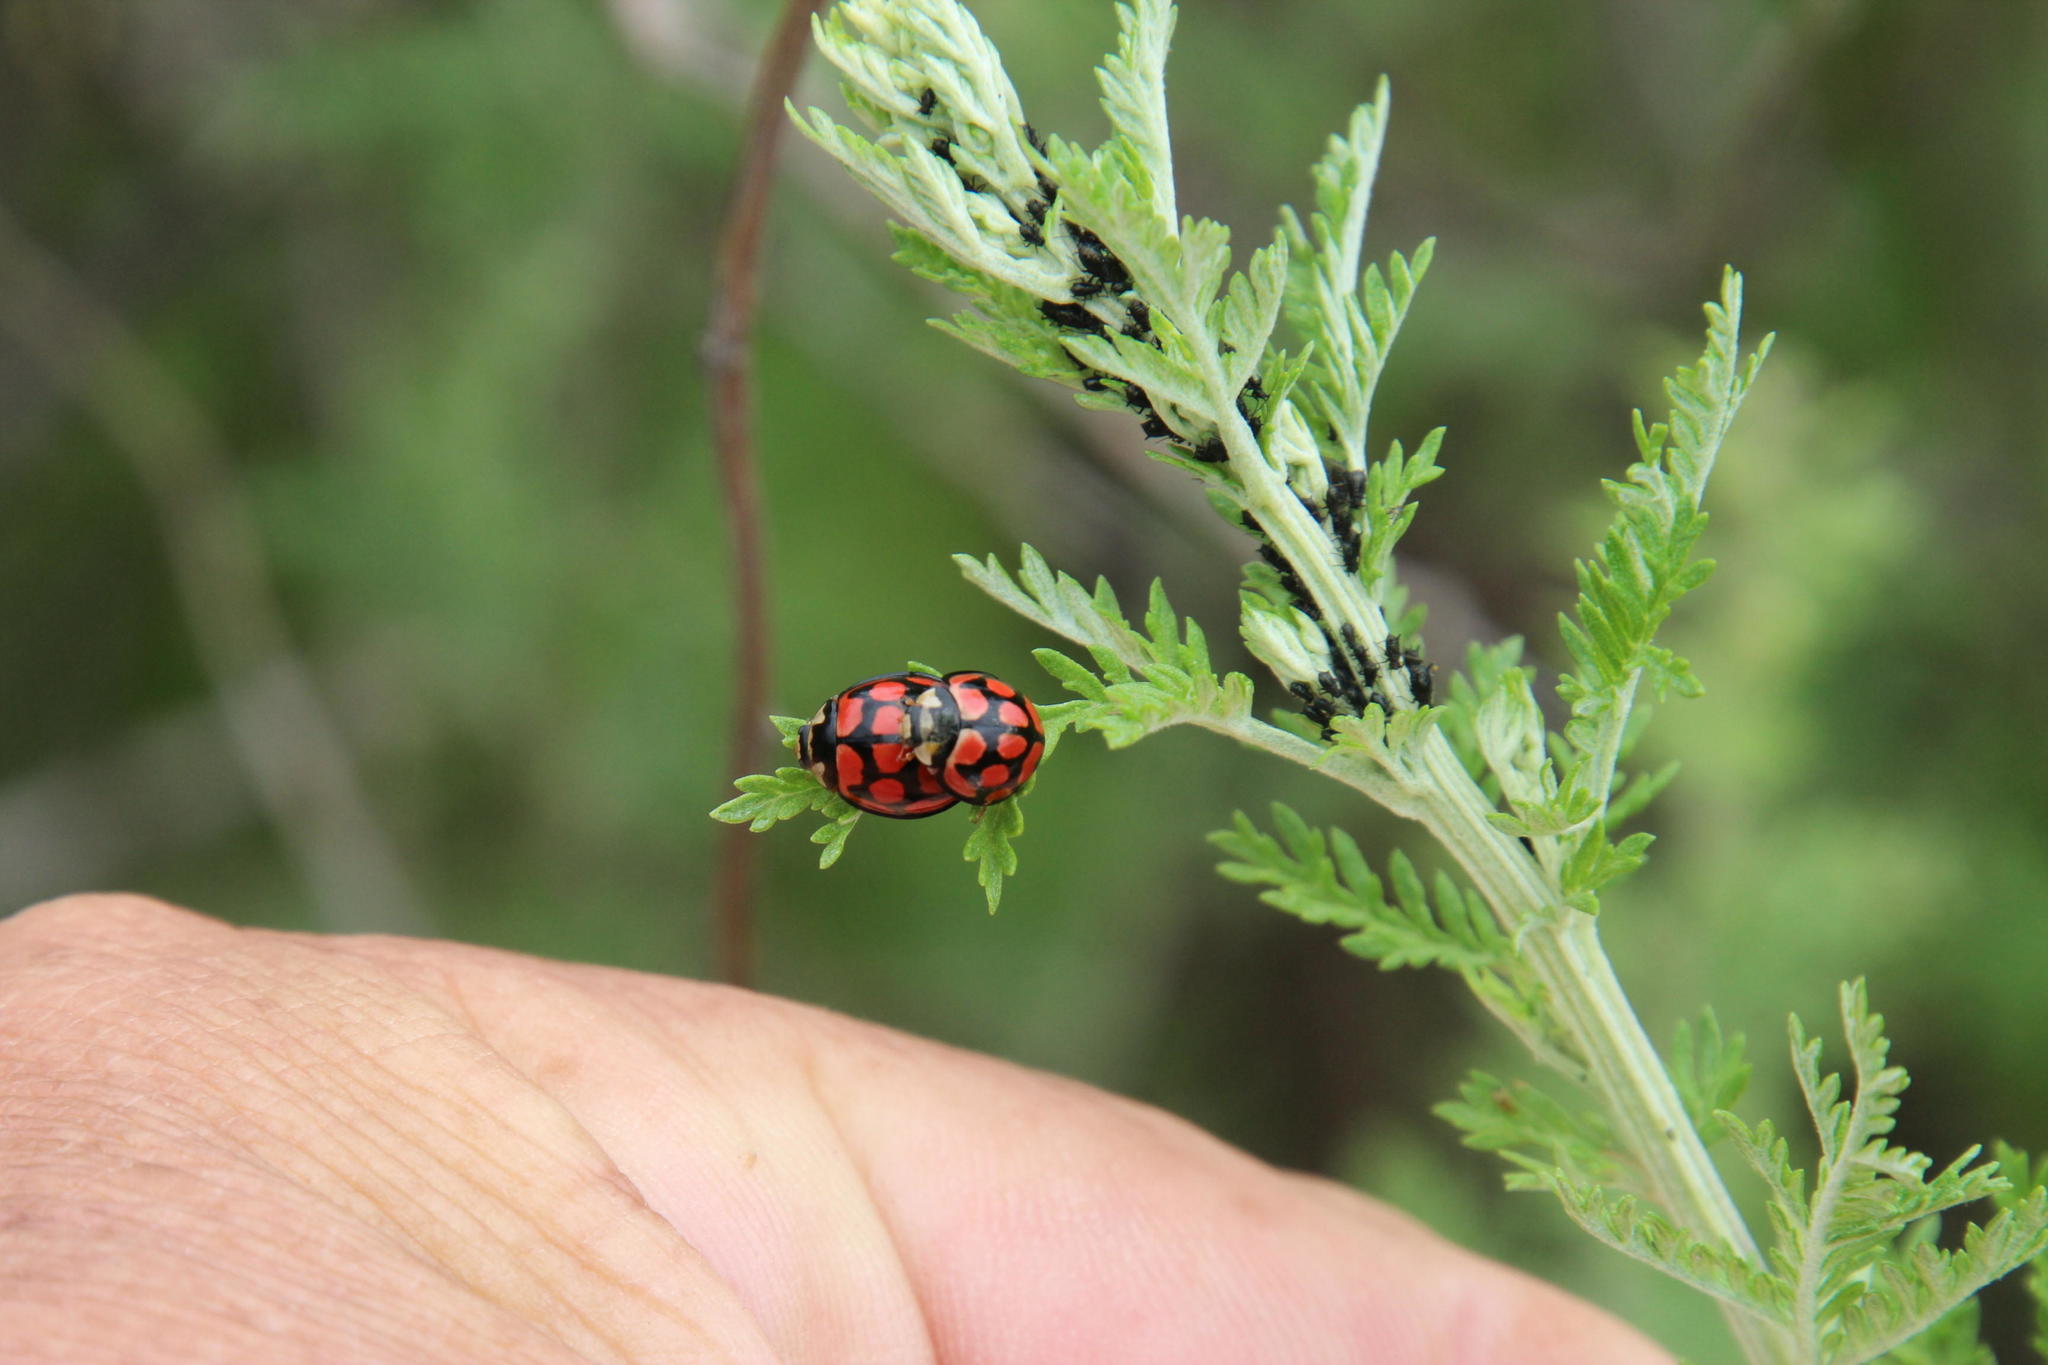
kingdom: Plantae
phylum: Tracheophyta
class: Magnoliopsida
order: Asterales
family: Asteraceae
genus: Artemisia
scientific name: Artemisia afra
